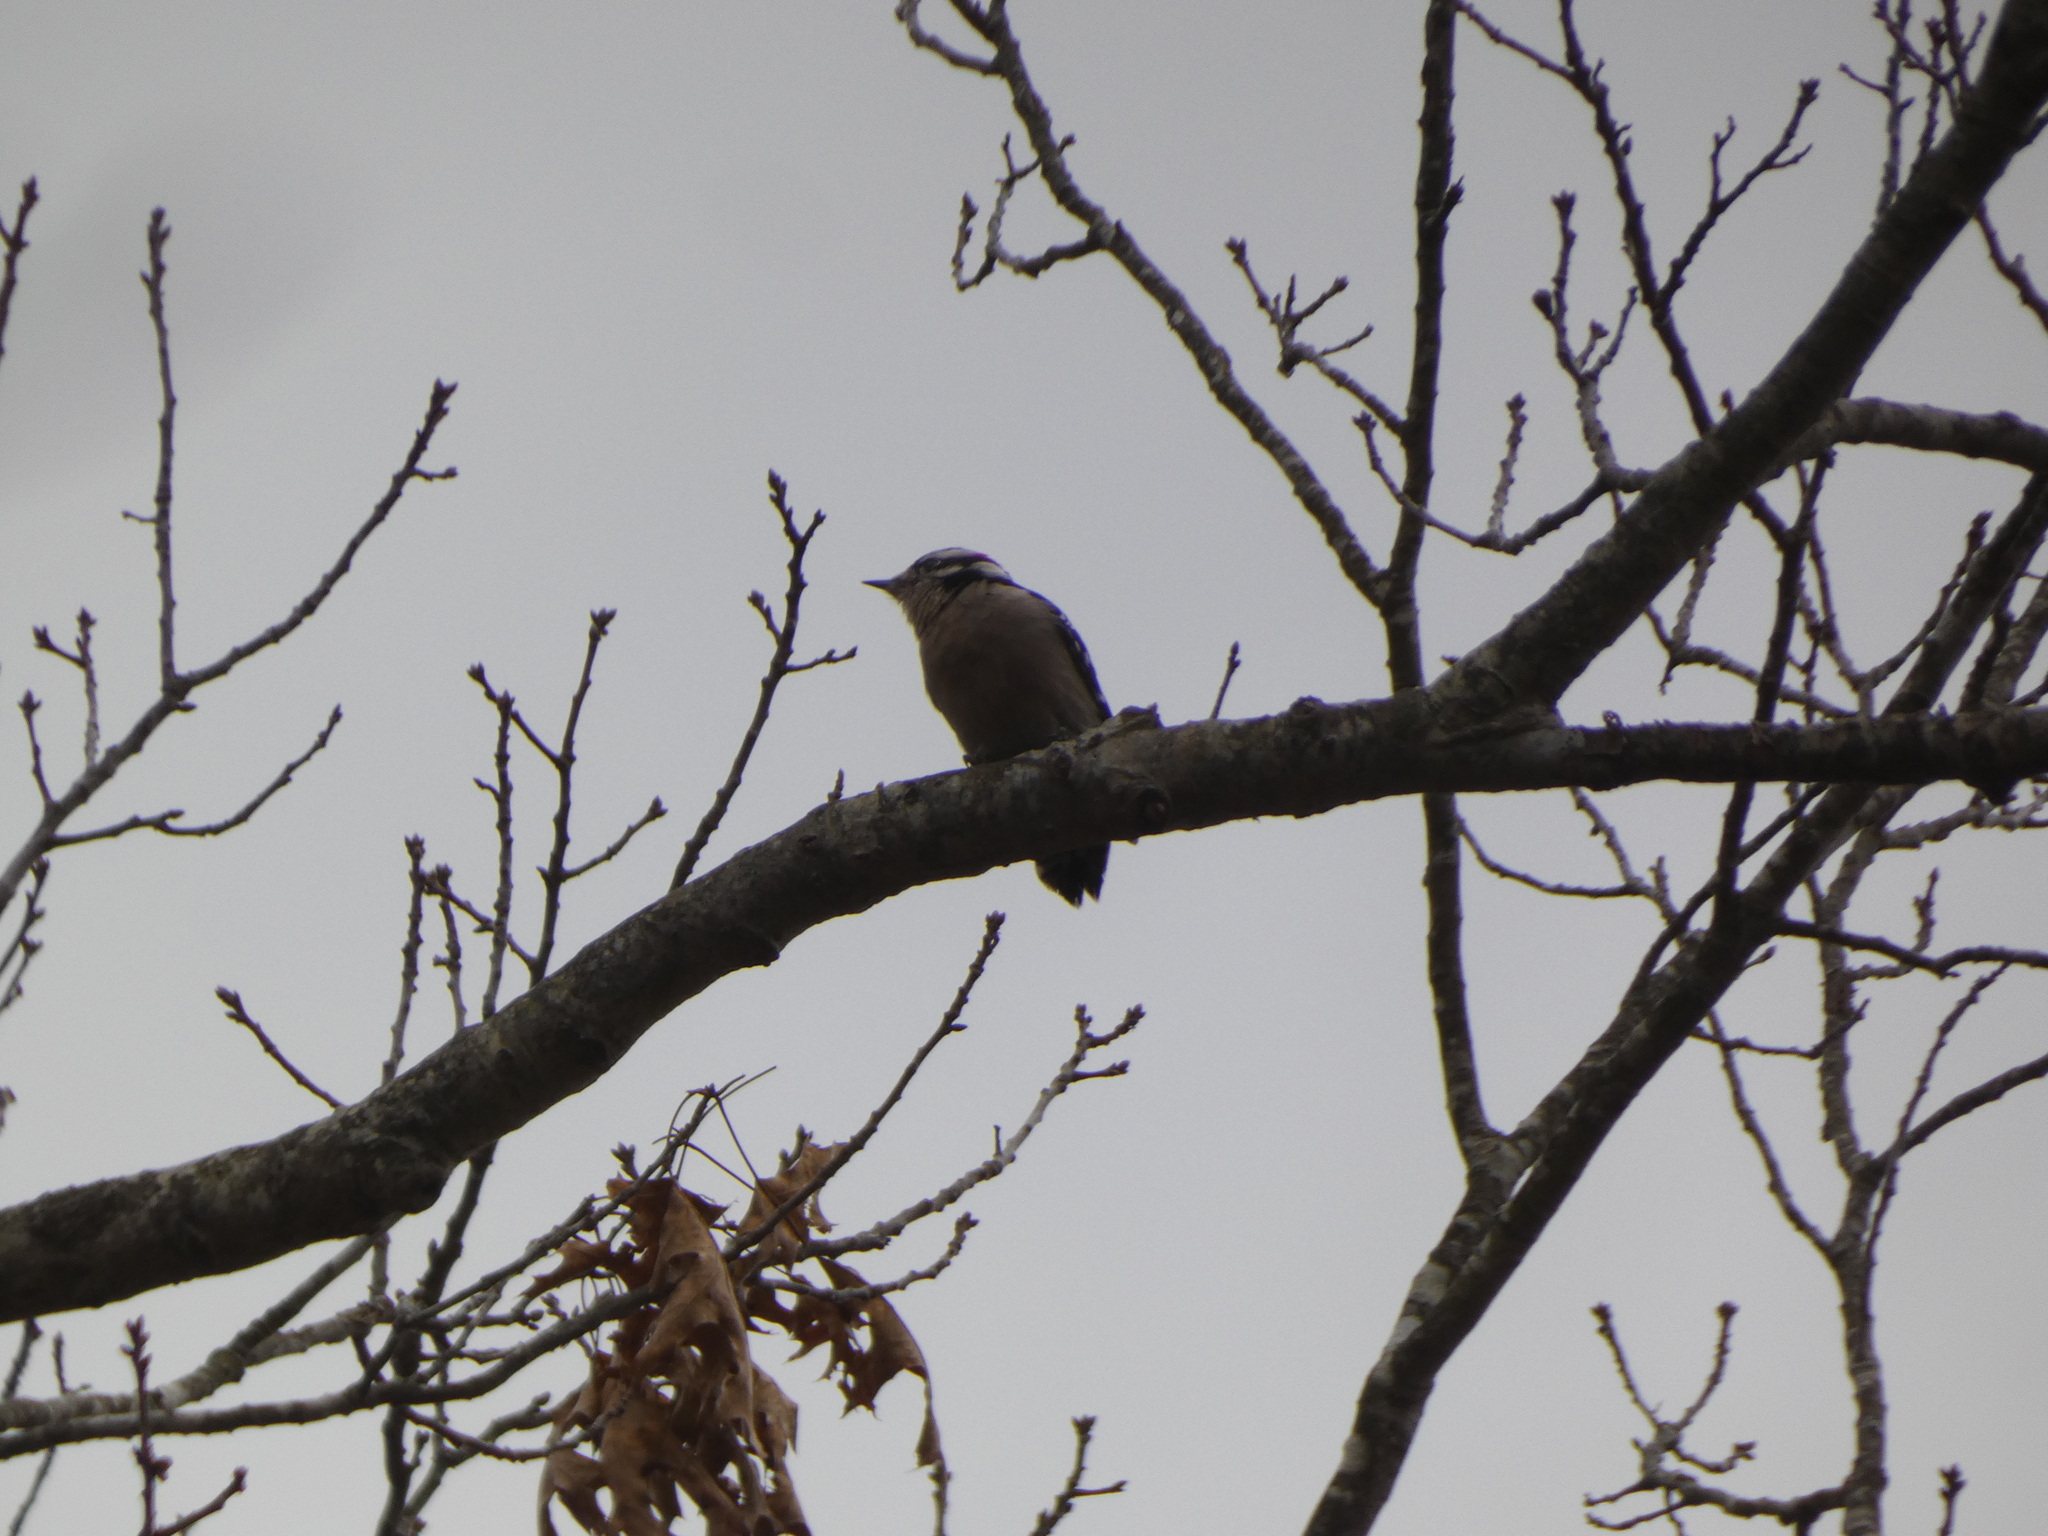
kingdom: Animalia
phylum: Chordata
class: Aves
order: Piciformes
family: Picidae
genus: Dryobates
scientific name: Dryobates pubescens
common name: Downy woodpecker
